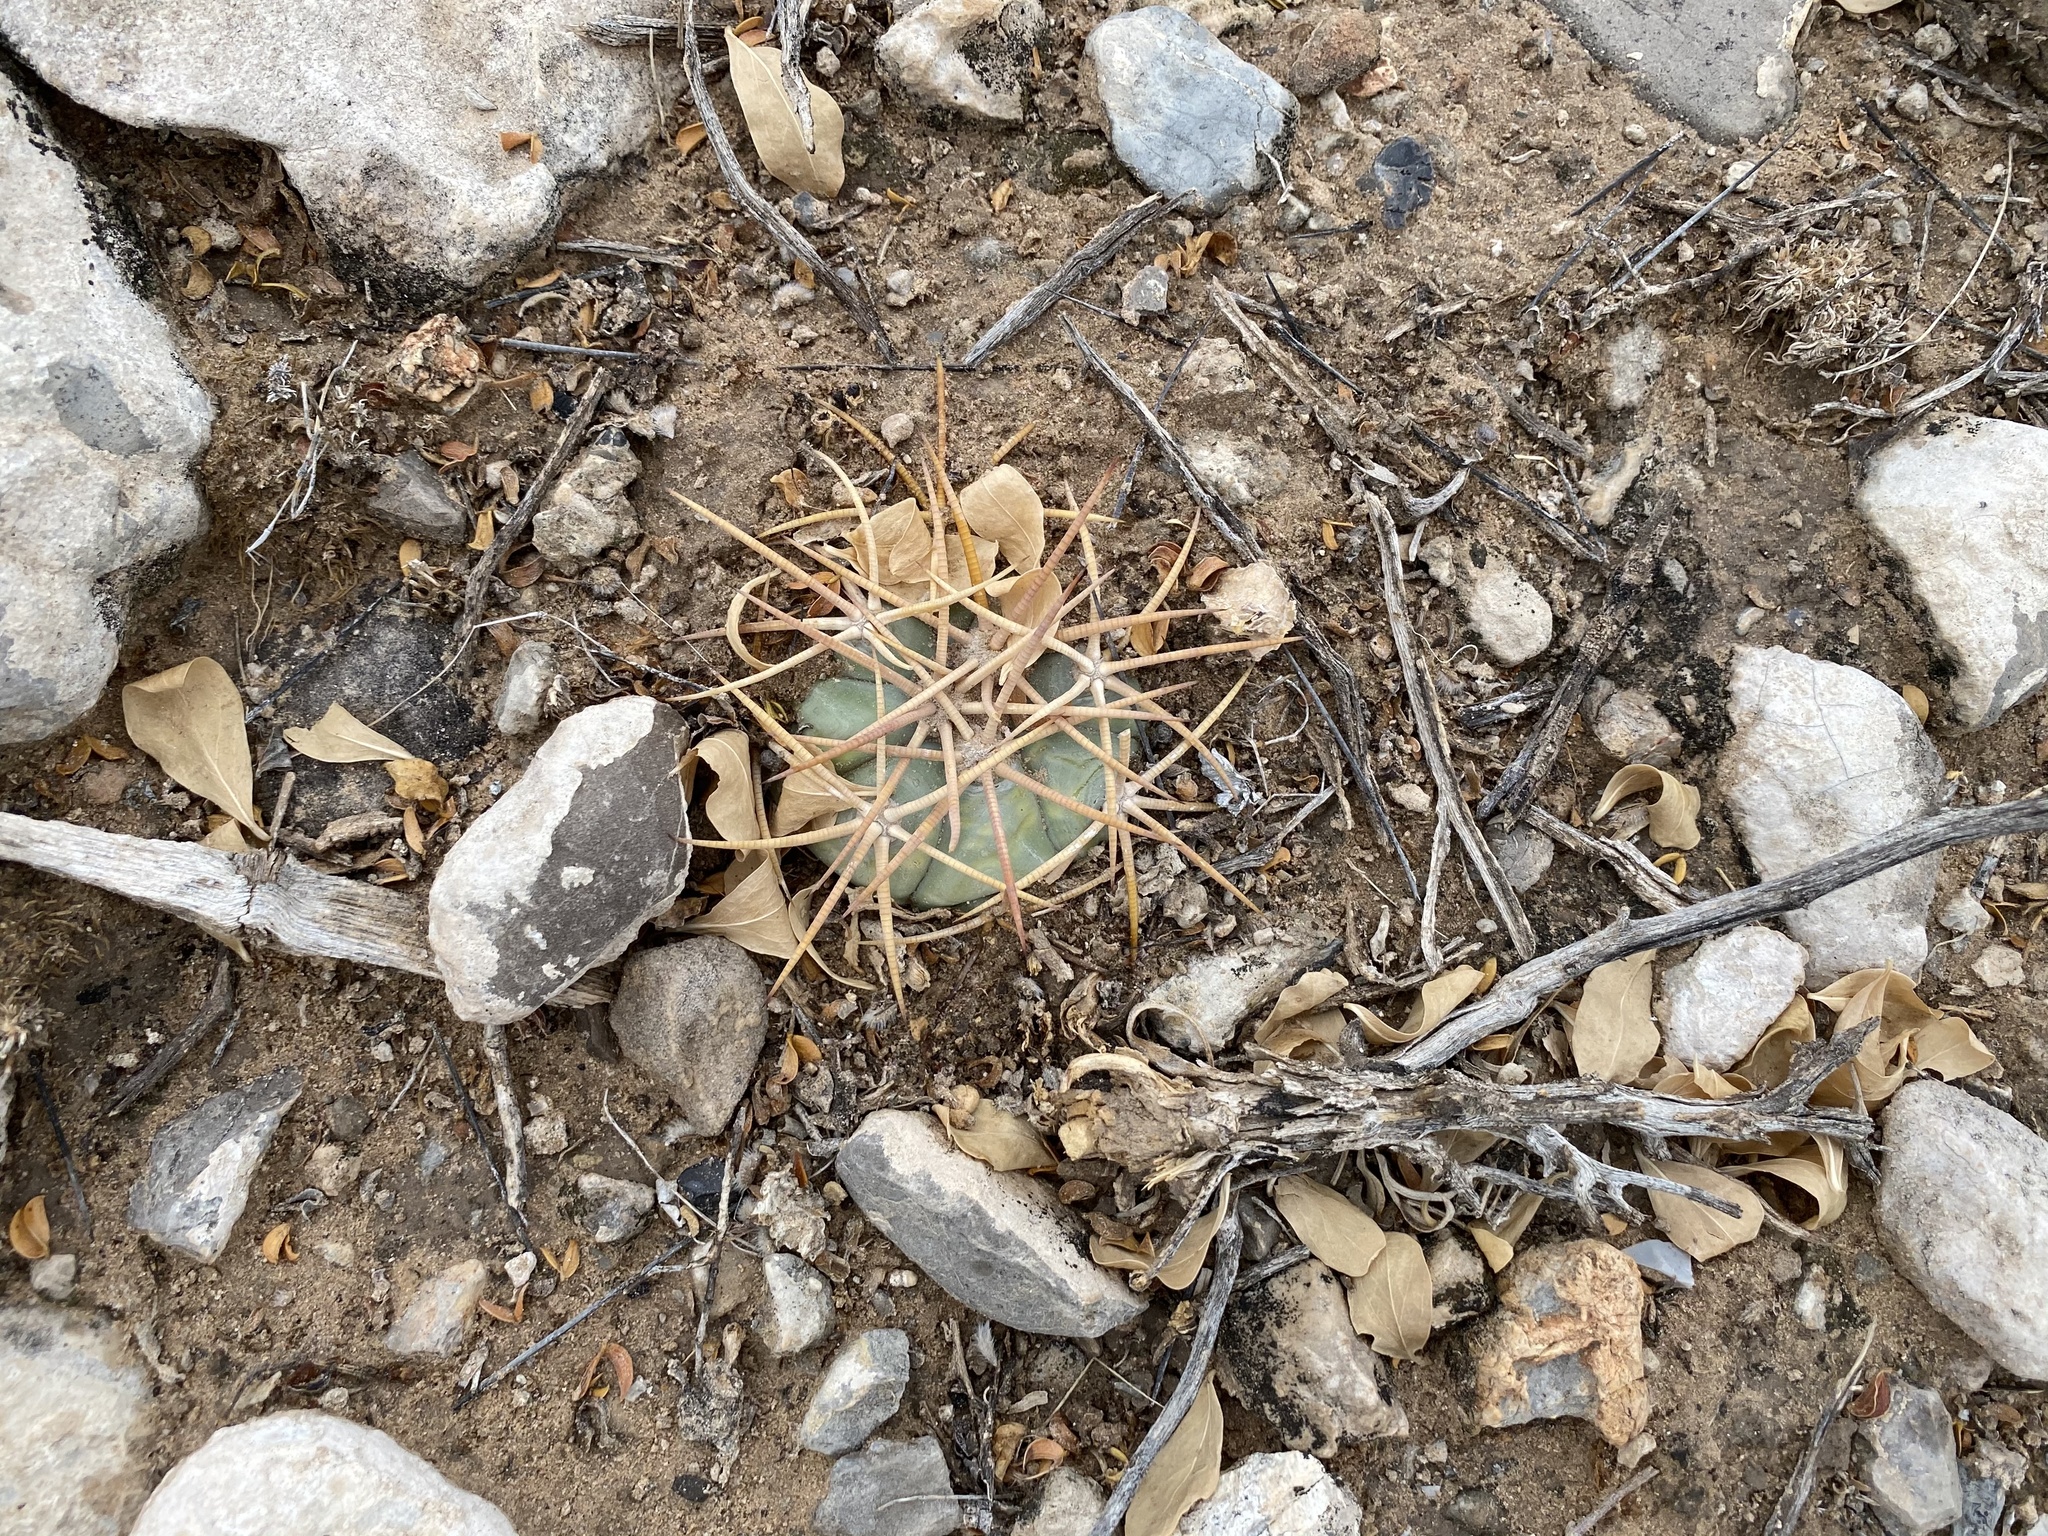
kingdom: Plantae
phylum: Tracheophyta
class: Magnoliopsida
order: Caryophyllales
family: Cactaceae
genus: Echinocactus
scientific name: Echinocactus horizonthalonius
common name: Devilshead
